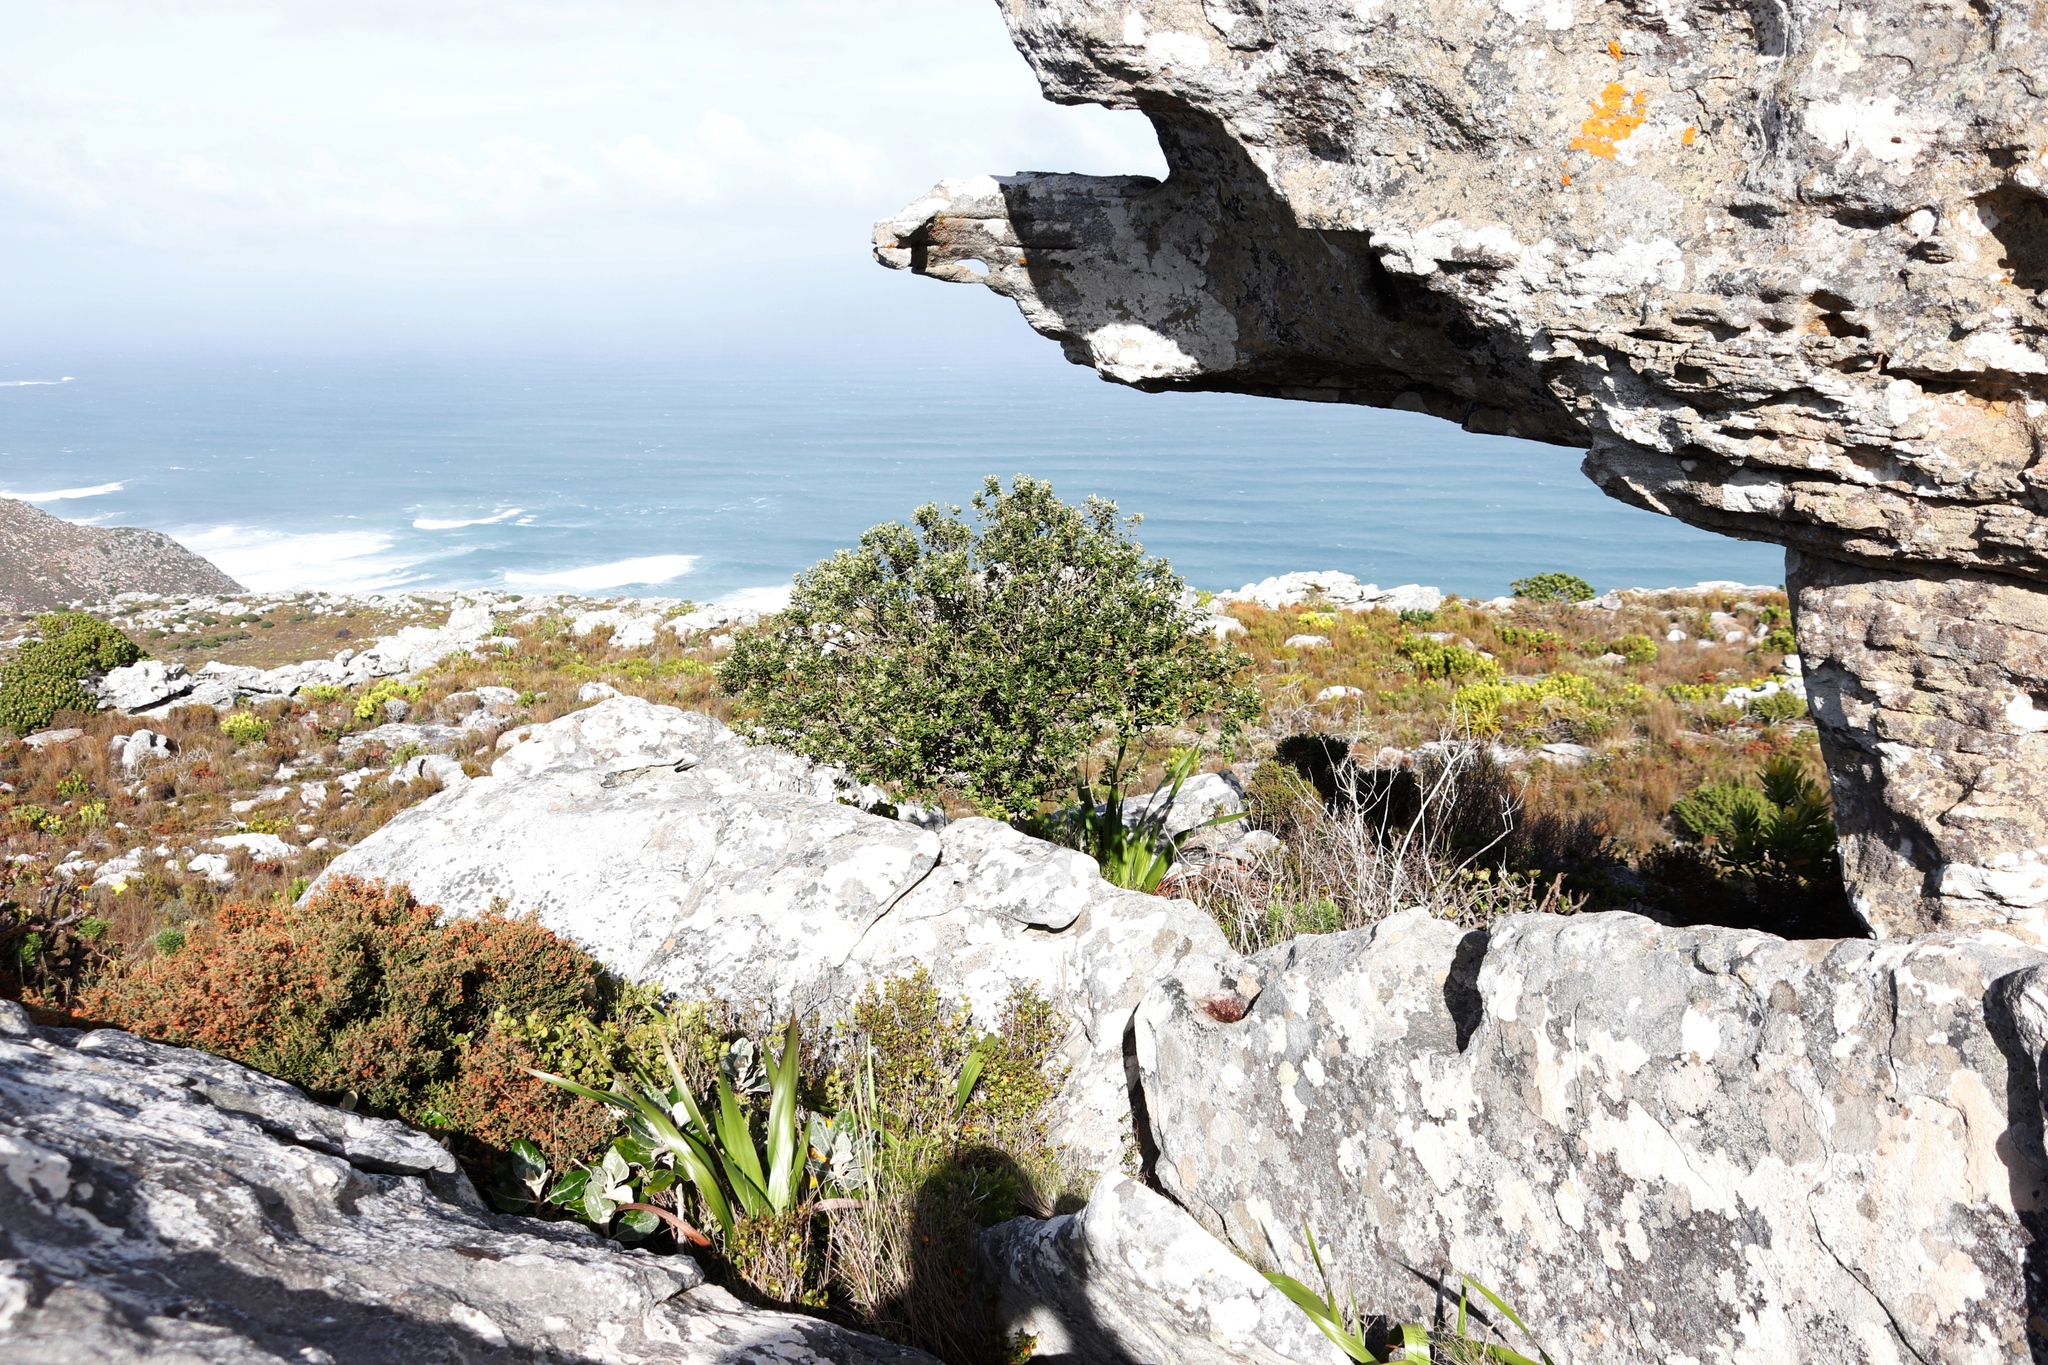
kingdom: Plantae
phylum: Tracheophyta
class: Magnoliopsida
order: Rosales
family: Rhamnaceae
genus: Phylica
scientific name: Phylica buxifolia
